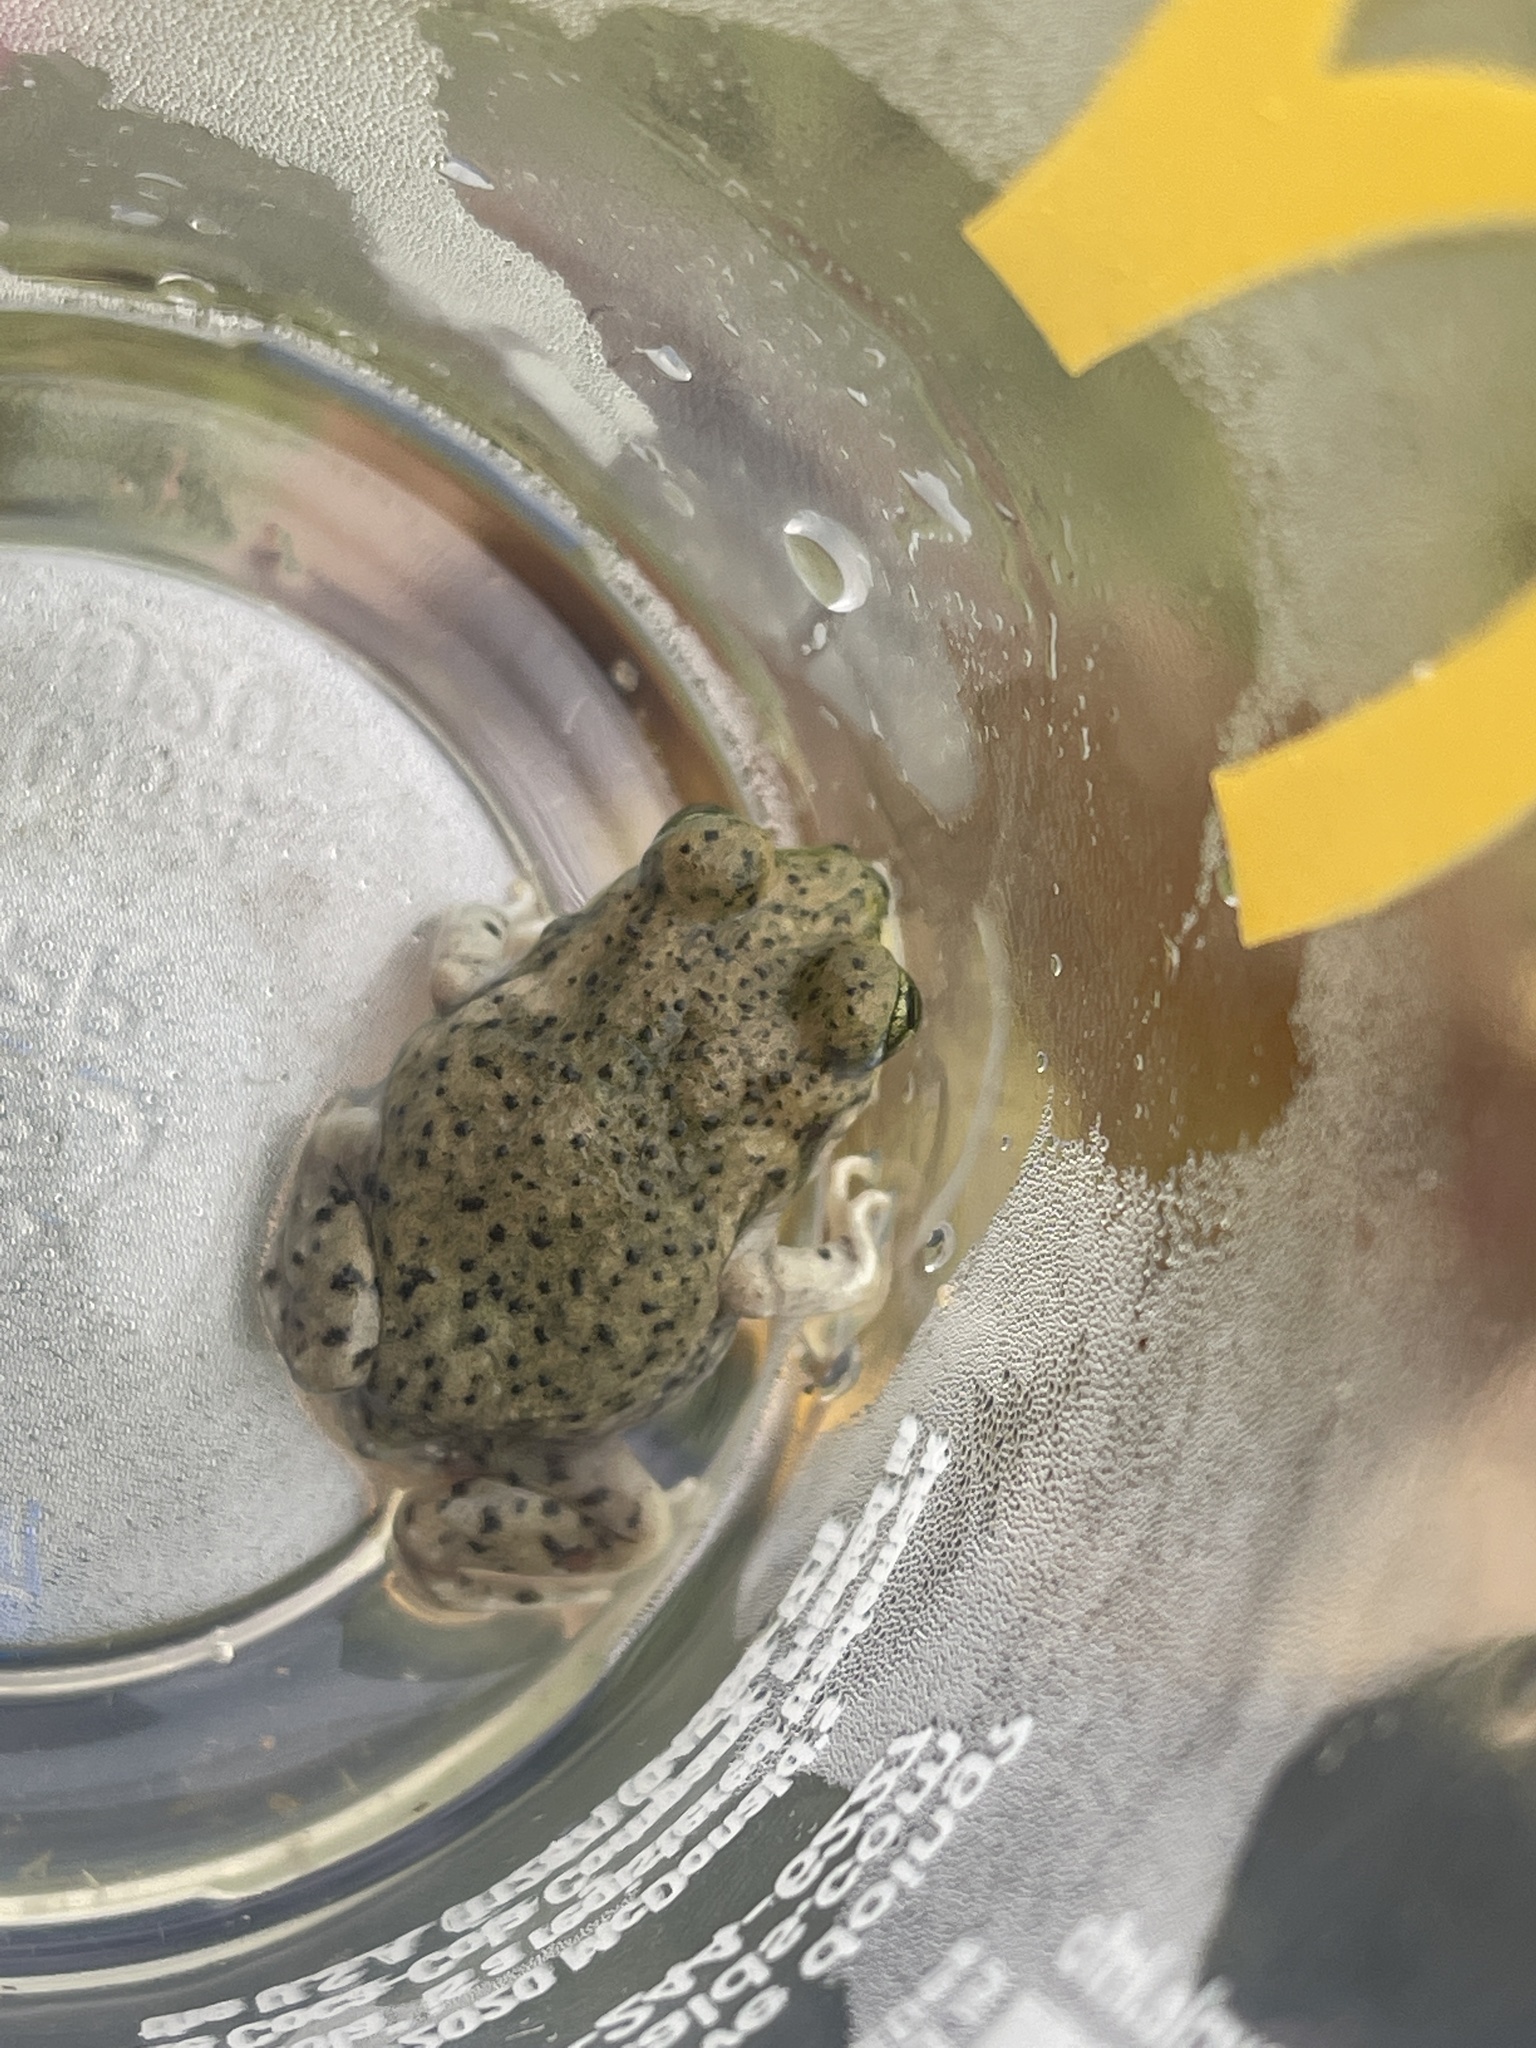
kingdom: Animalia
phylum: Chordata
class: Amphibia
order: Anura
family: Scaphiopodidae
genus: Spea
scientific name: Spea multiplicata
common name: Mexican spadefoot
